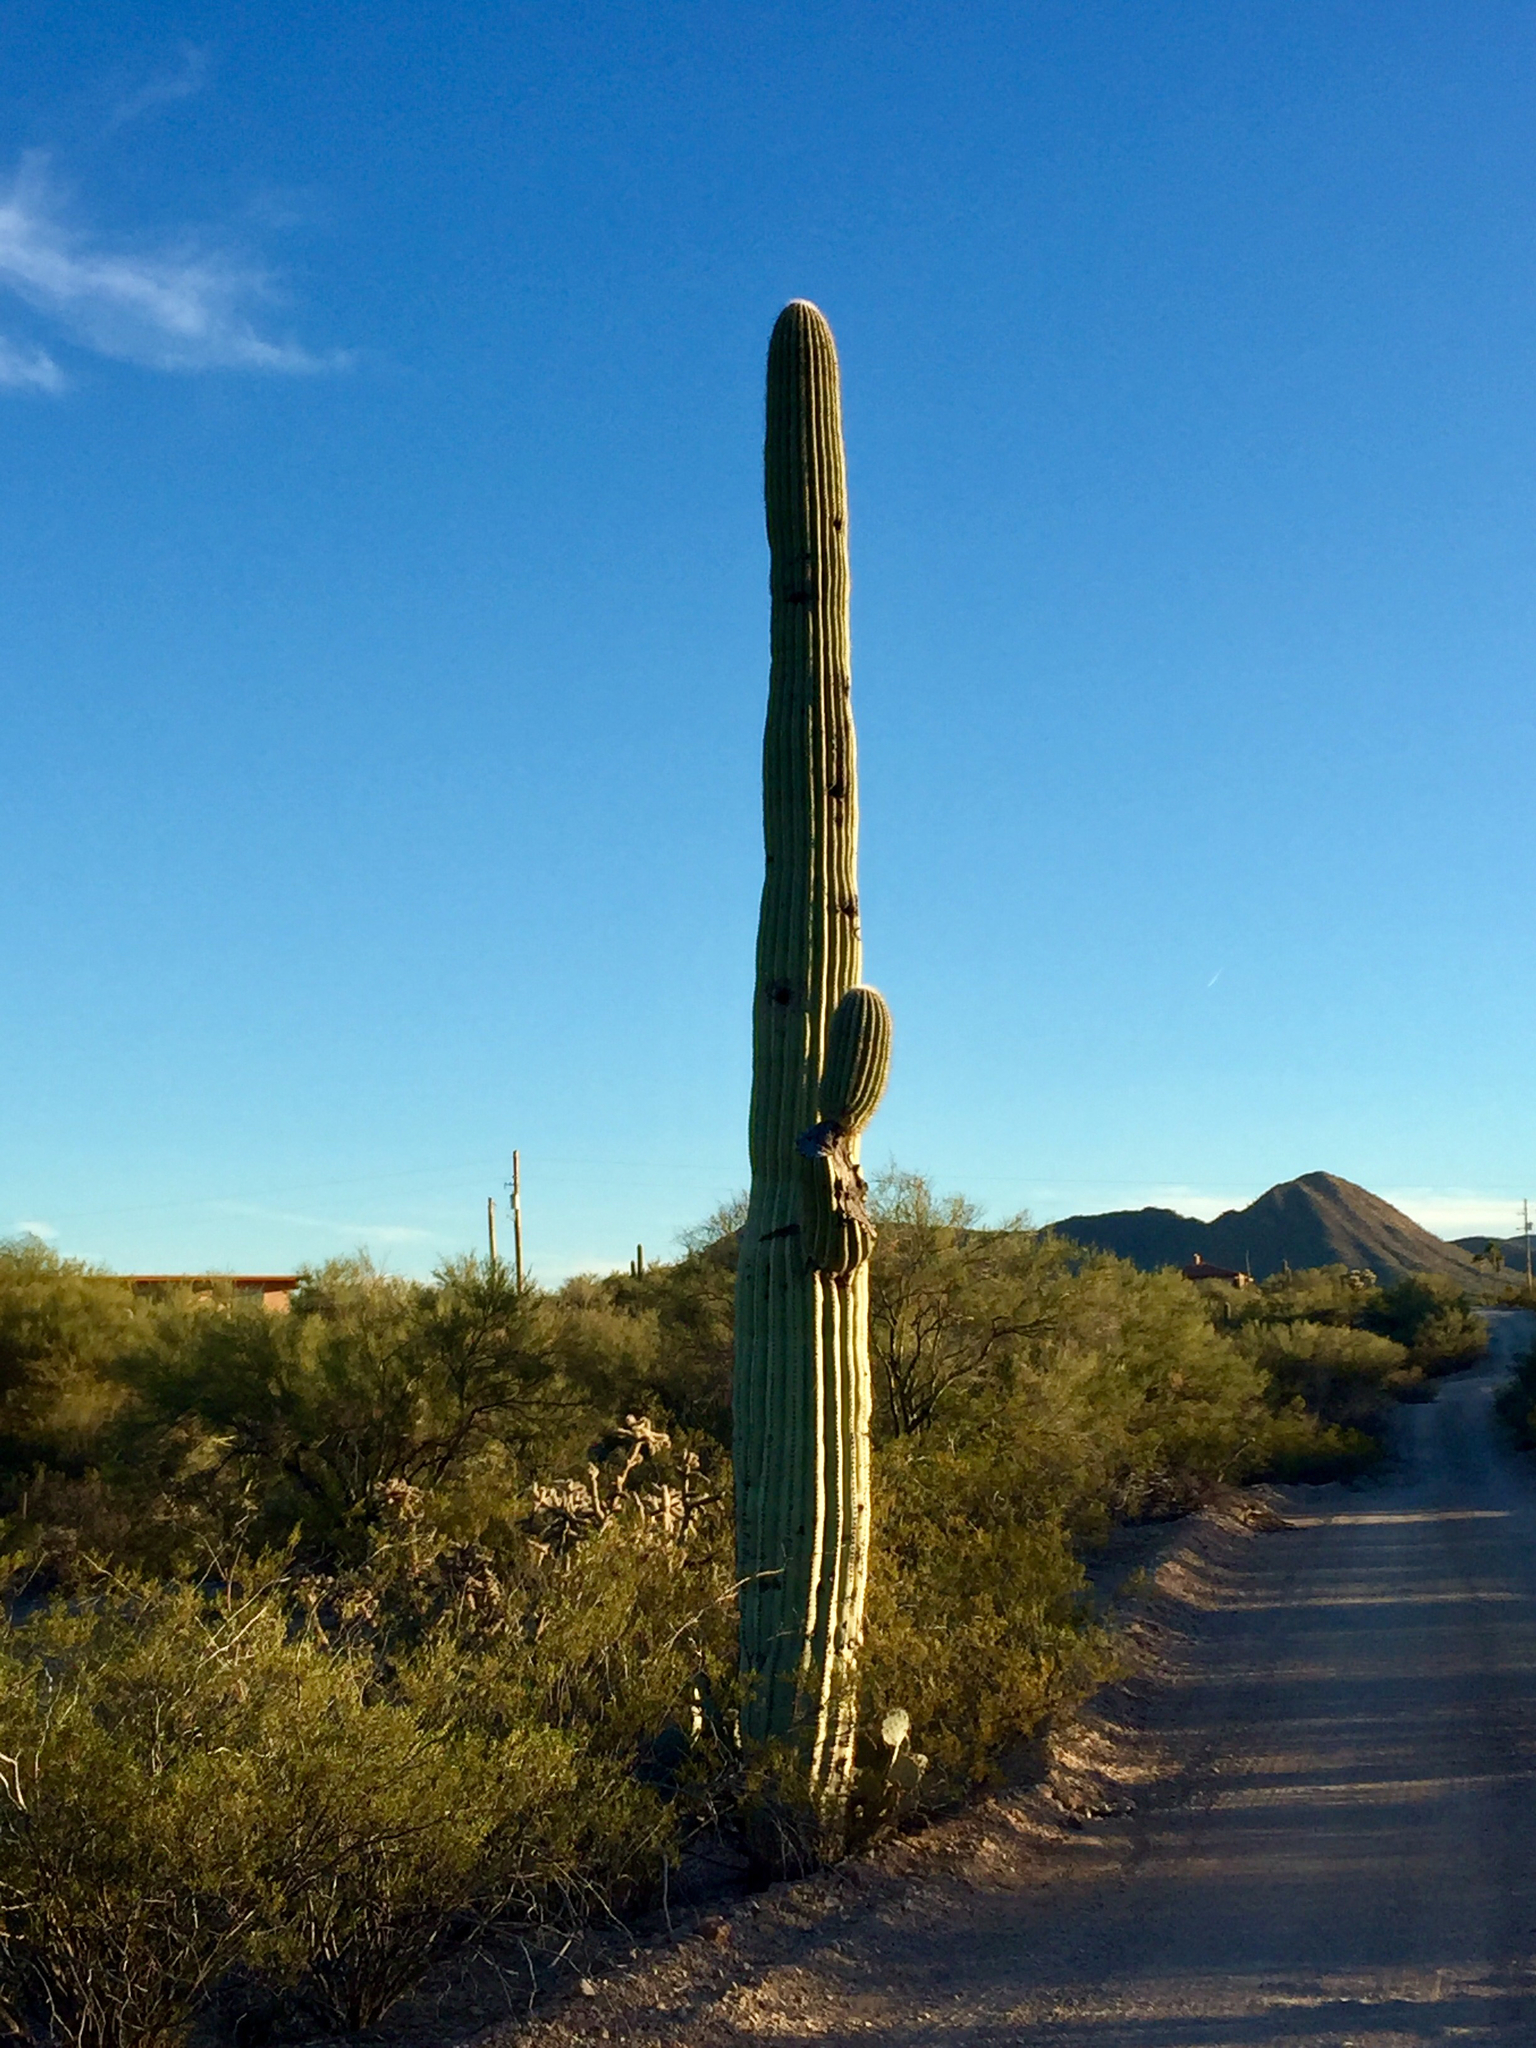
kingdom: Plantae
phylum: Tracheophyta
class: Magnoliopsida
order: Caryophyllales
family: Cactaceae
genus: Carnegiea
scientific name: Carnegiea gigantea
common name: Saguaro
